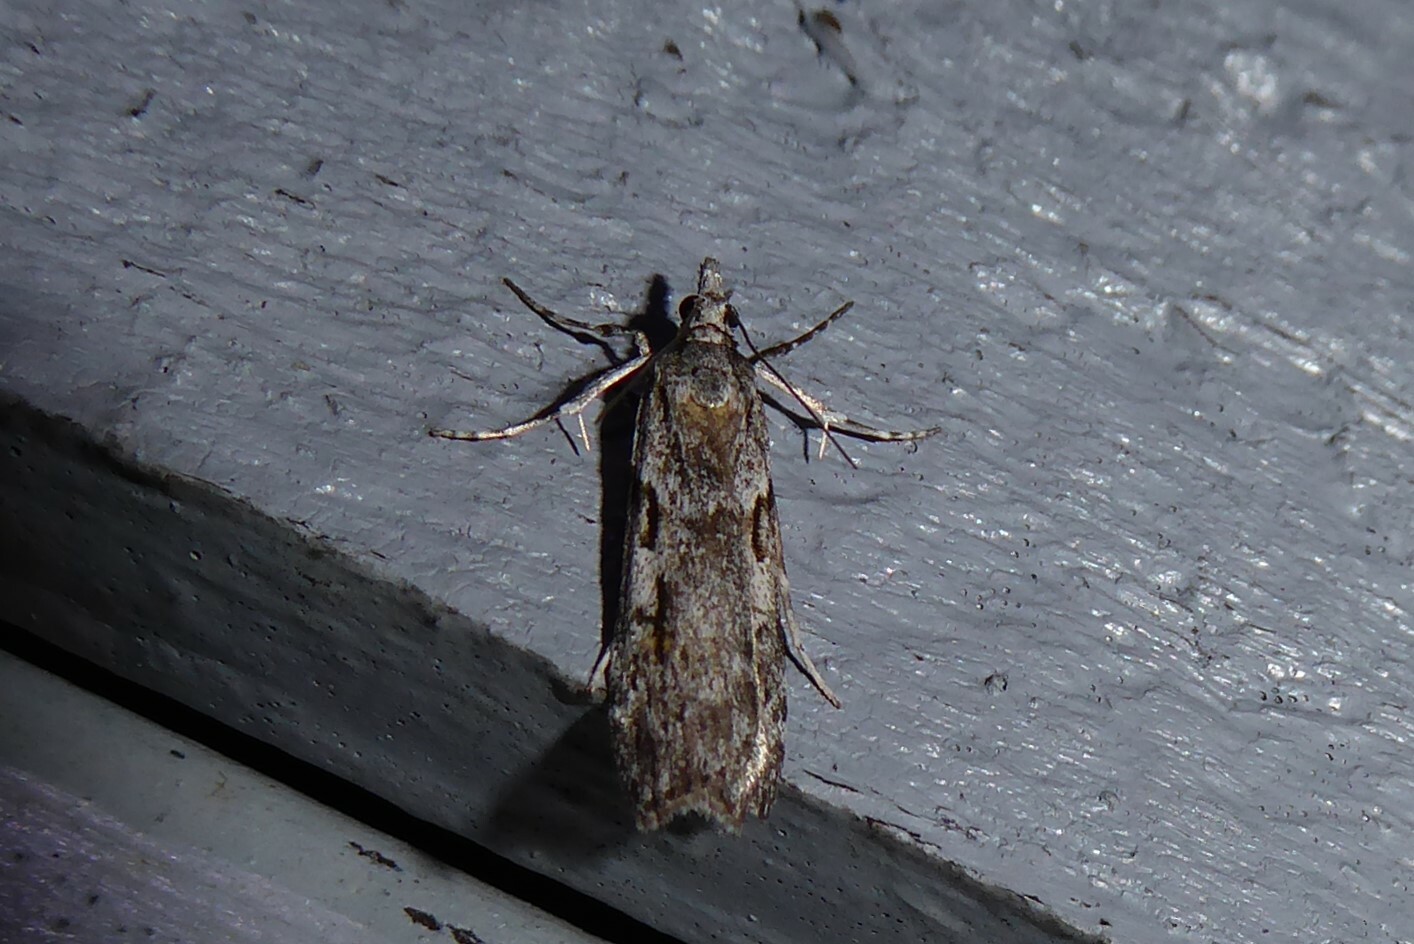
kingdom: Animalia
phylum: Arthropoda
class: Insecta
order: Lepidoptera
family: Crambidae
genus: Scoparia
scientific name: Scoparia halopis
